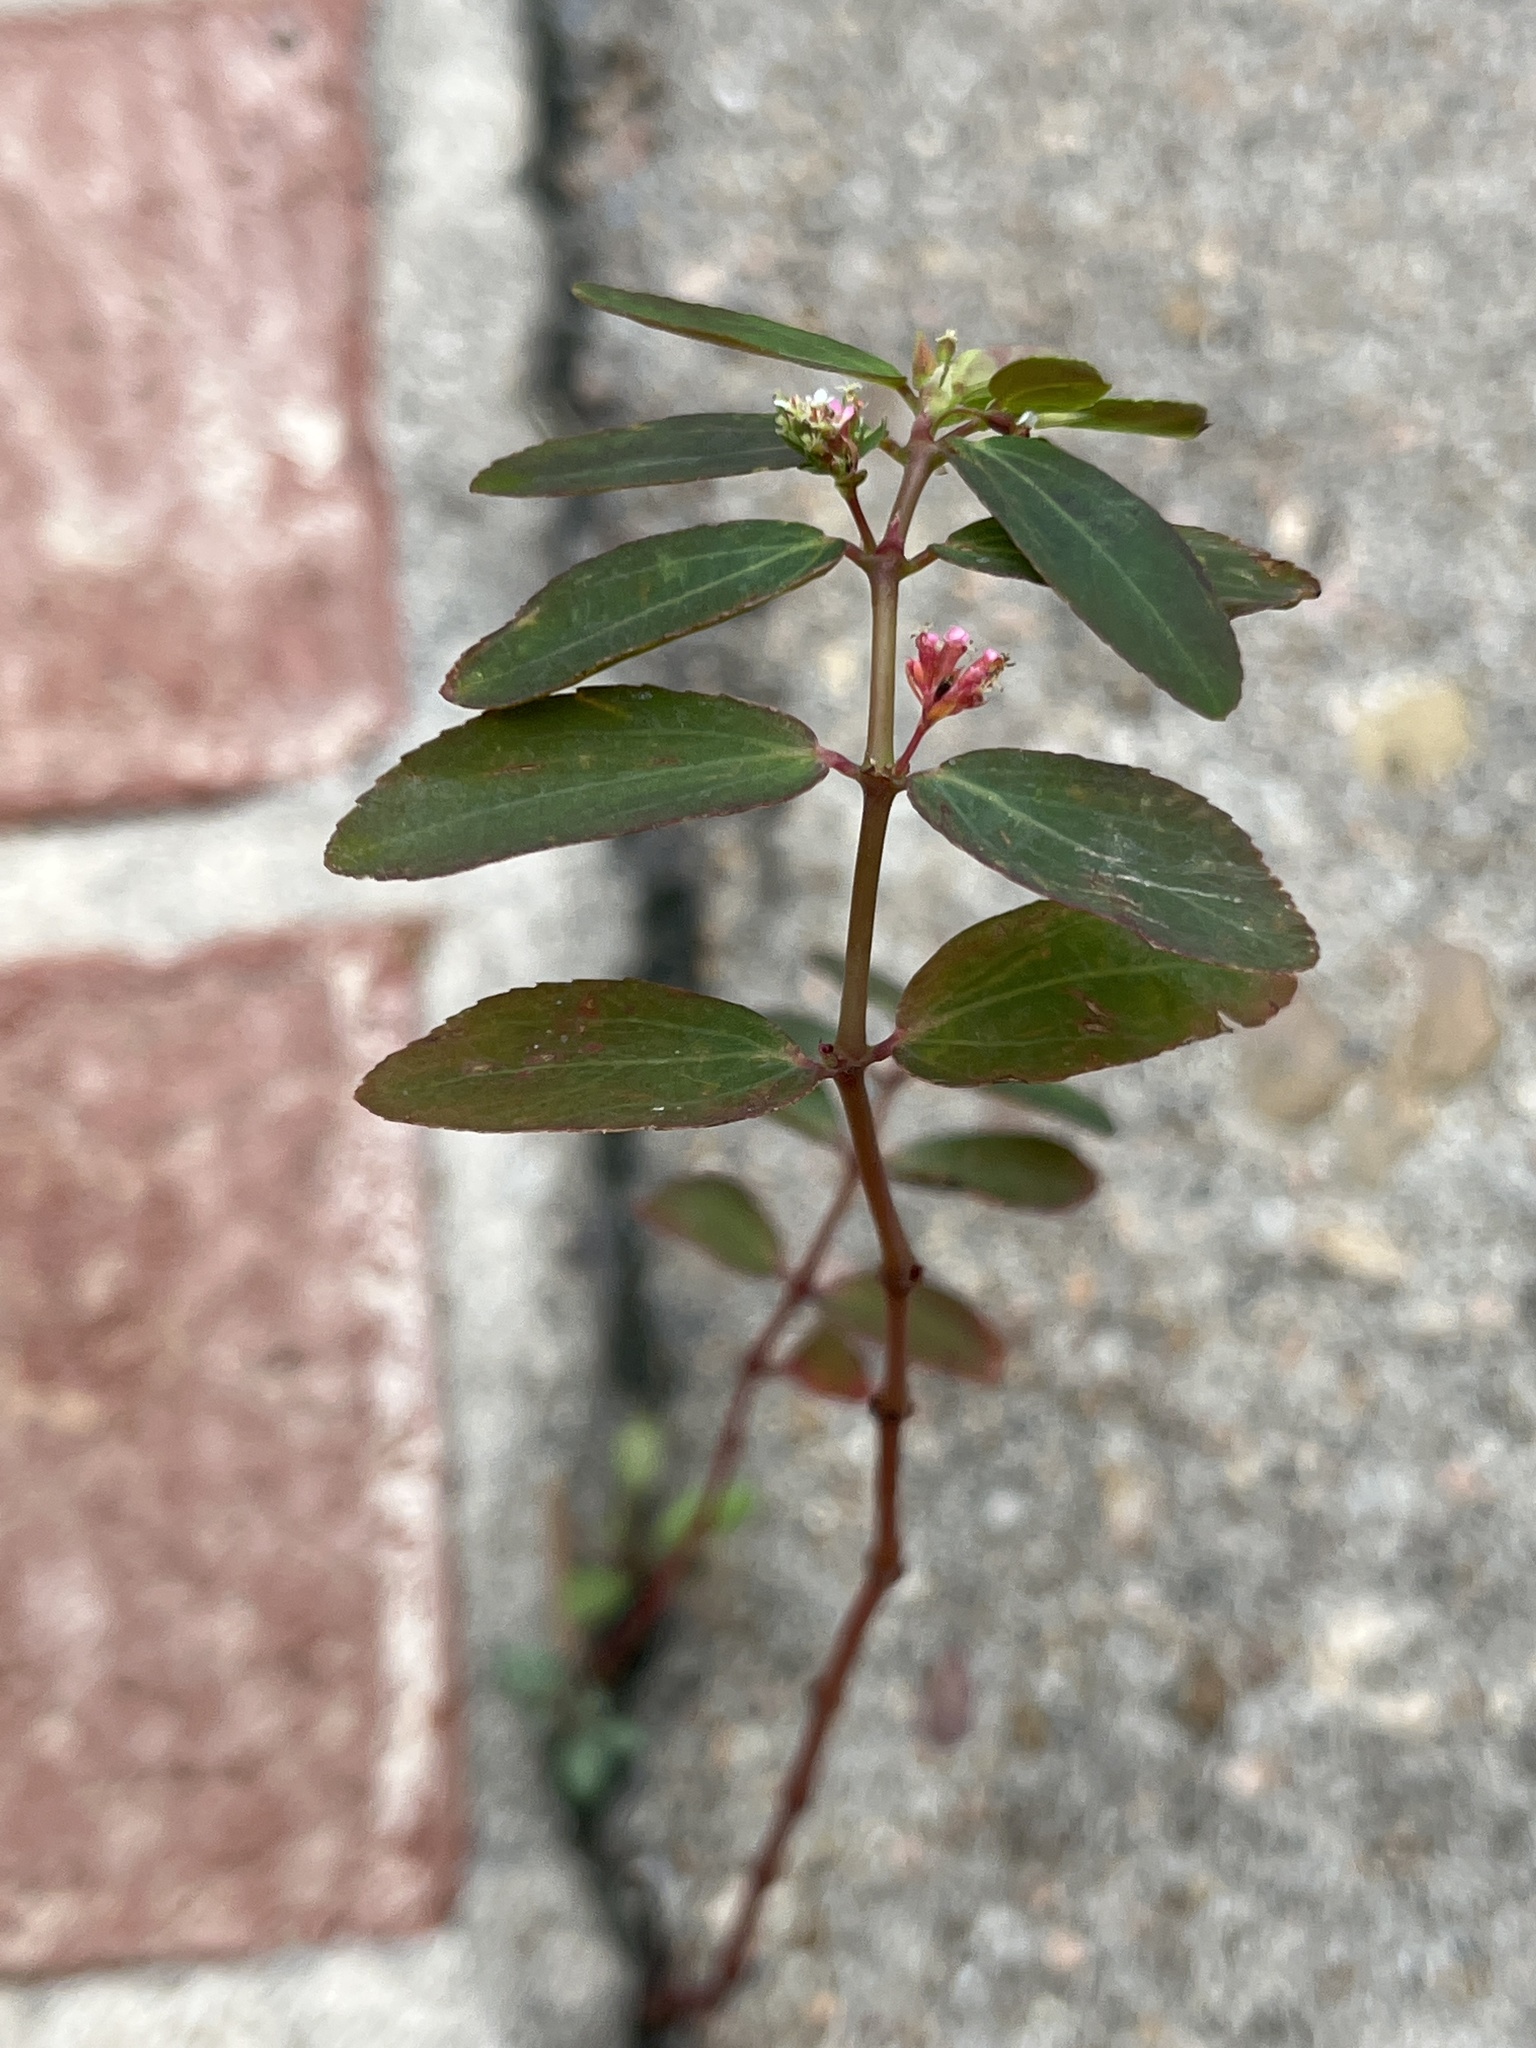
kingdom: Plantae
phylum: Tracheophyta
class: Magnoliopsida
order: Malpighiales
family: Euphorbiaceae
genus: Euphorbia
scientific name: Euphorbia hypericifolia
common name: Graceful sandmat
